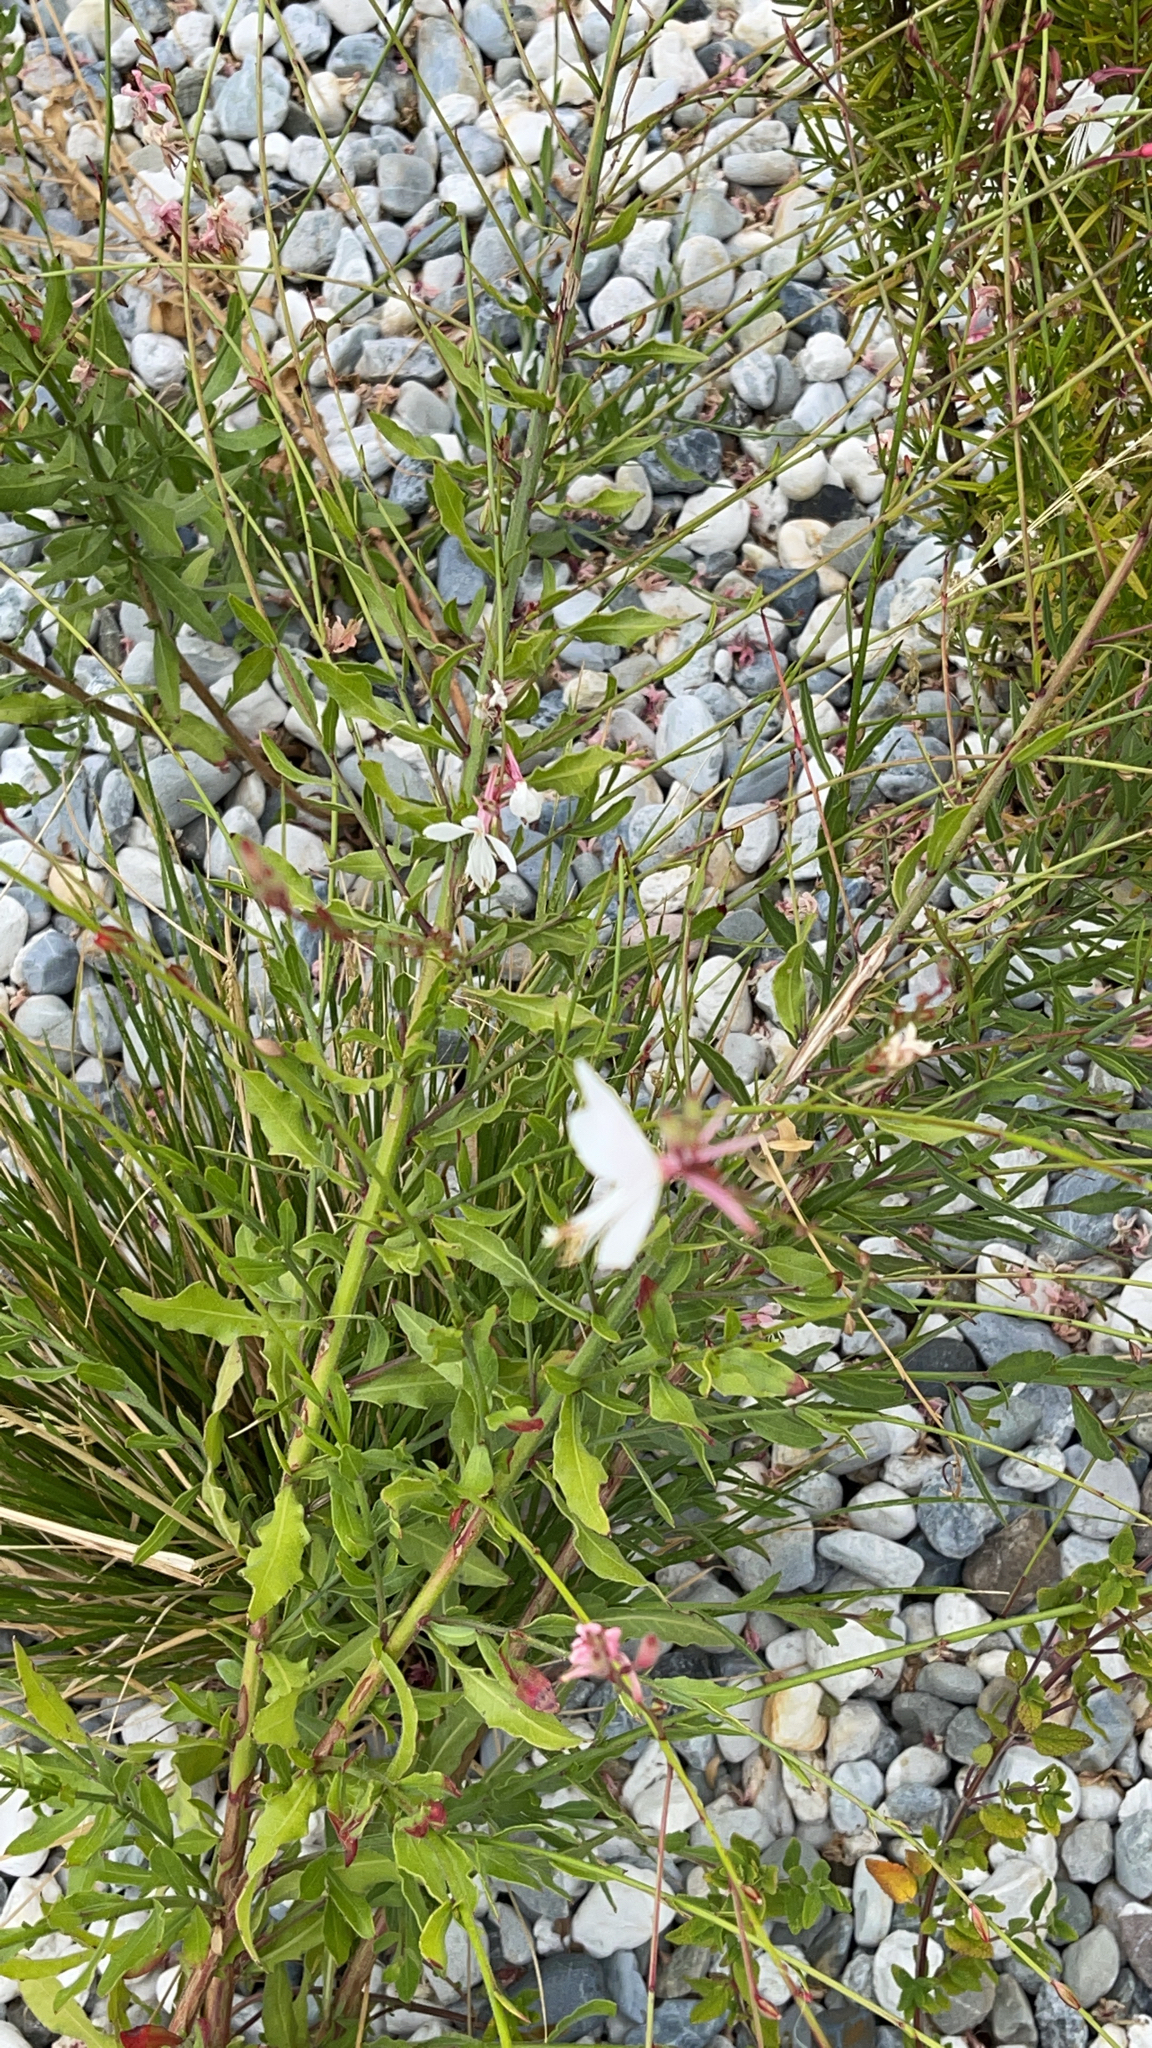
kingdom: Plantae
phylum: Tracheophyta
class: Magnoliopsida
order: Myrtales
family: Onagraceae
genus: Oenothera
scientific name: Oenothera lindheimeri
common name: Lindheimer's beeblossom
